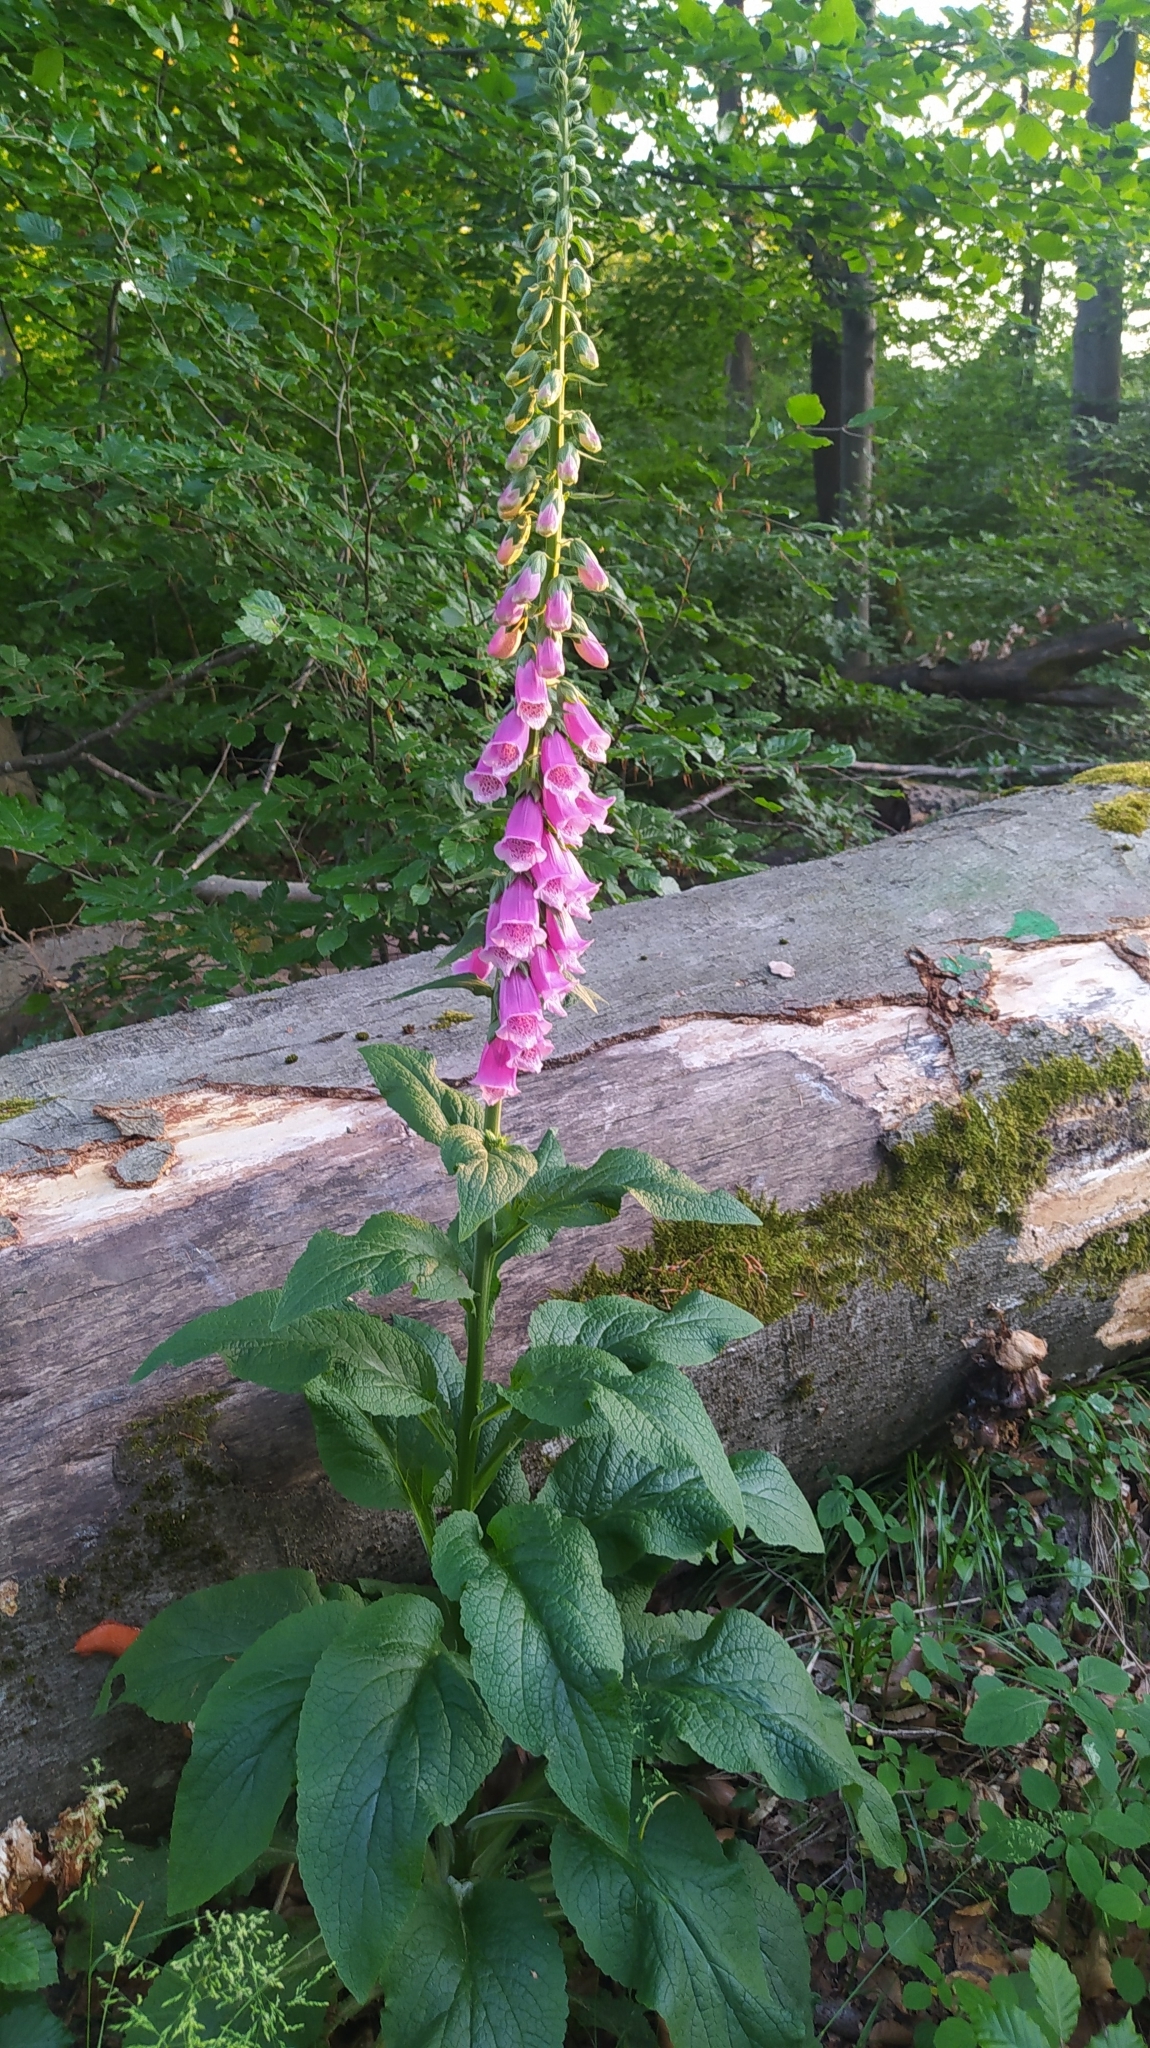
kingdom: Plantae
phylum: Tracheophyta
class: Magnoliopsida
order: Lamiales
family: Plantaginaceae
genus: Digitalis
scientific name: Digitalis purpurea
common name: Foxglove
